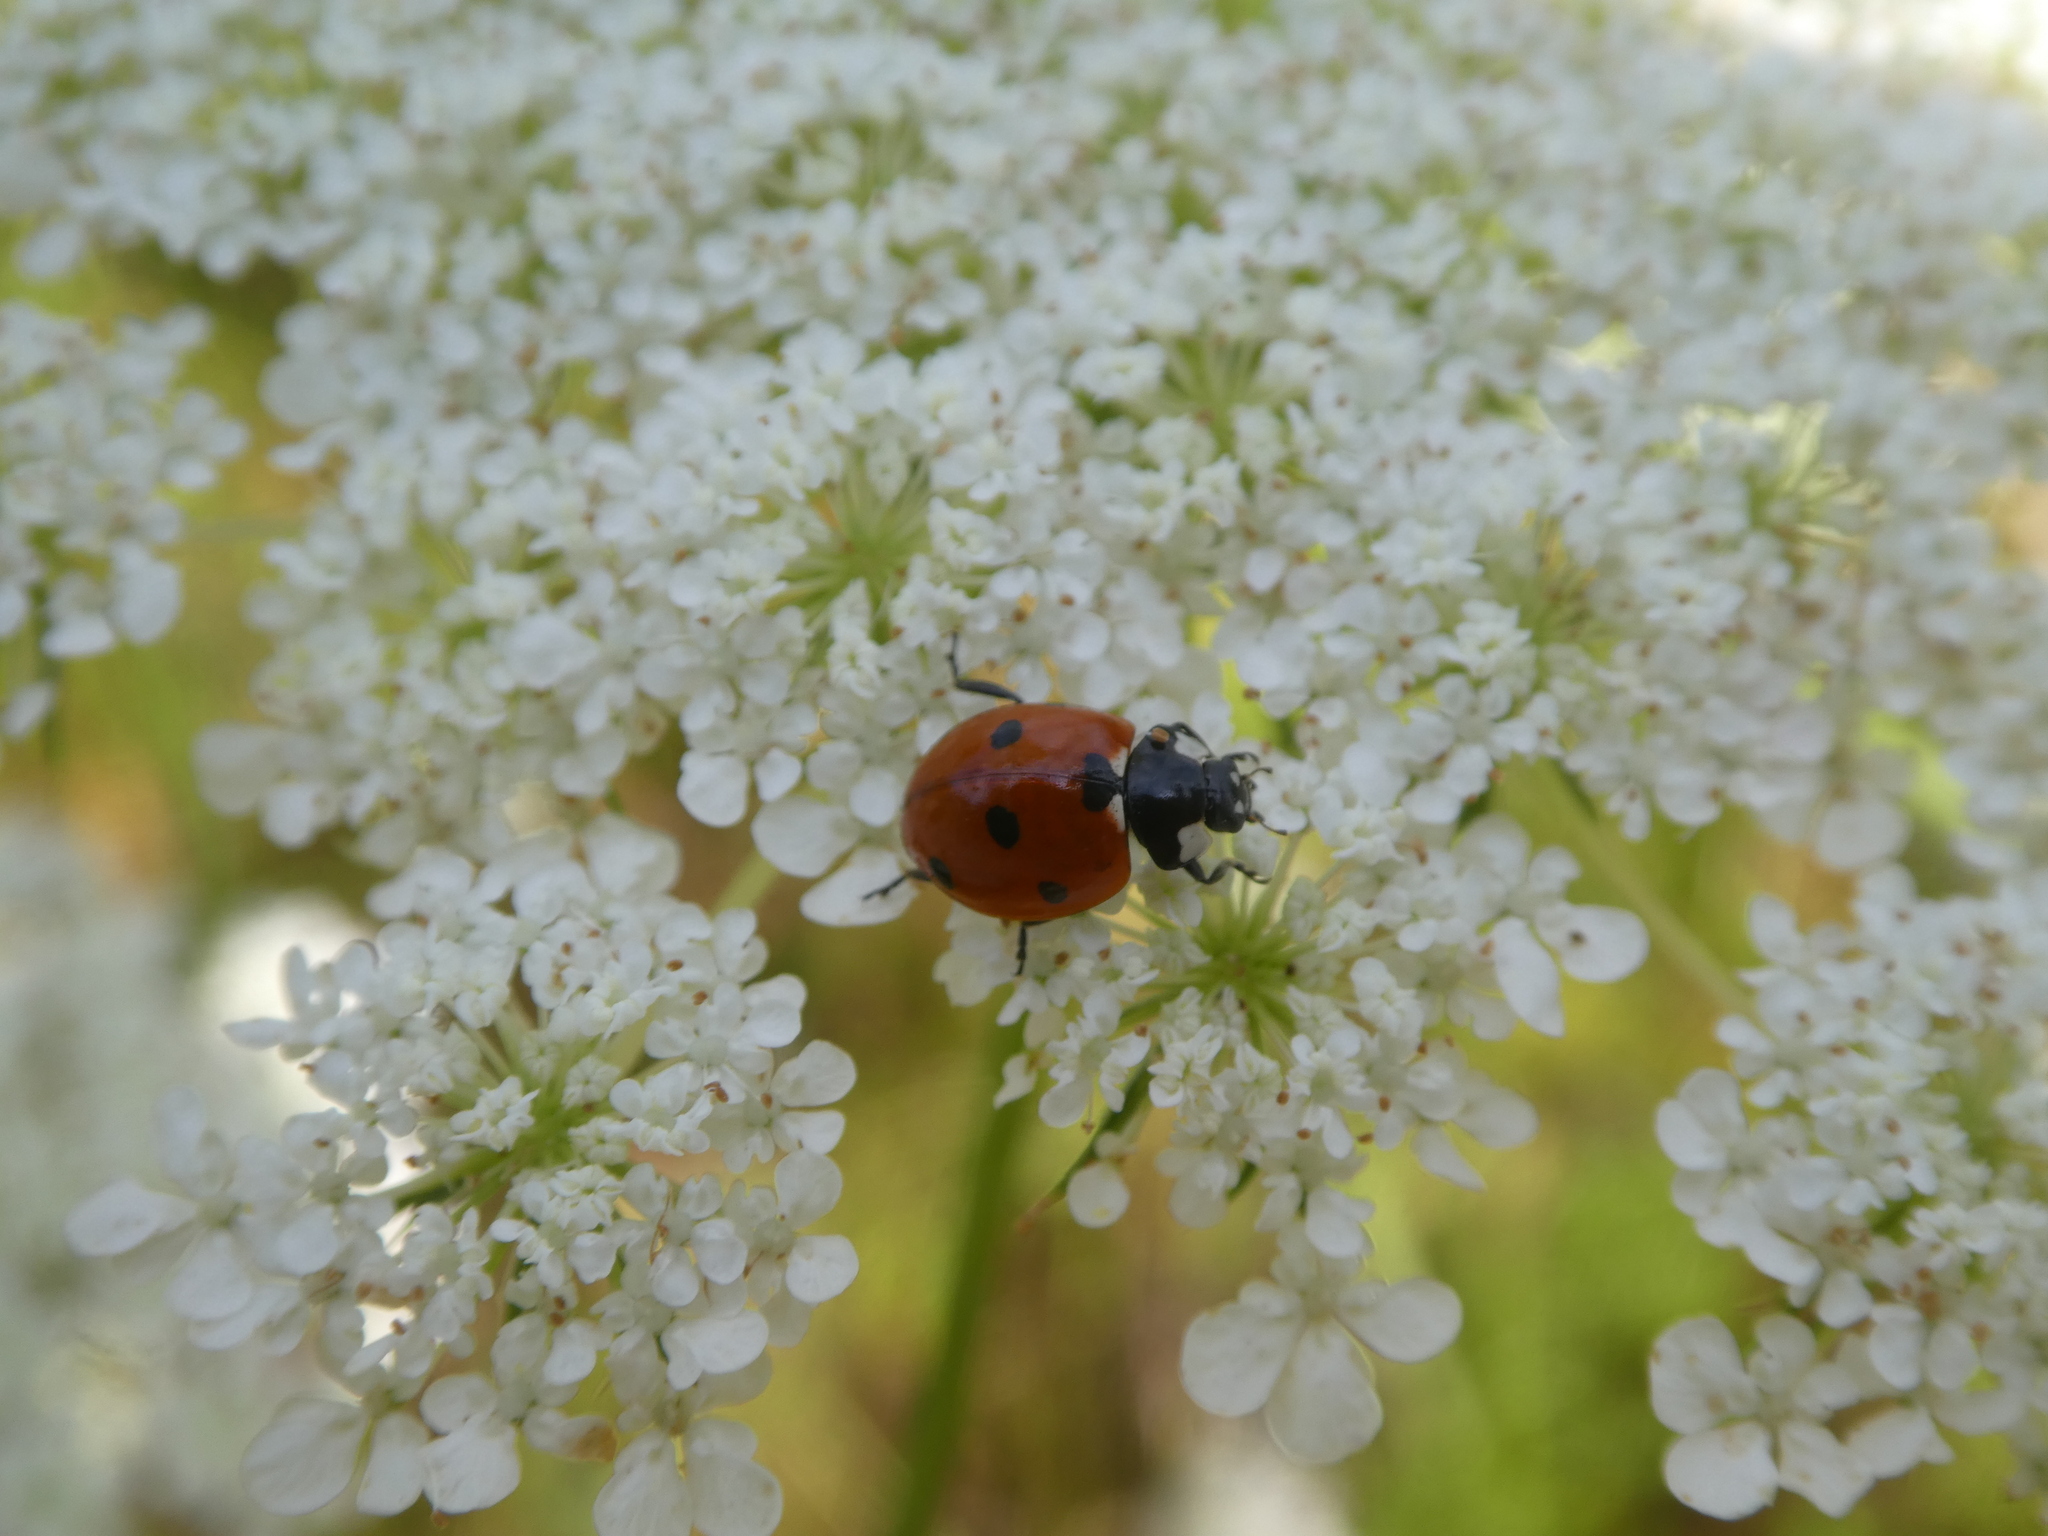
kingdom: Animalia
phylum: Arthropoda
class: Insecta
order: Coleoptera
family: Coccinellidae
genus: Coccinella
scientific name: Coccinella septempunctata
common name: Sevenspotted lady beetle
